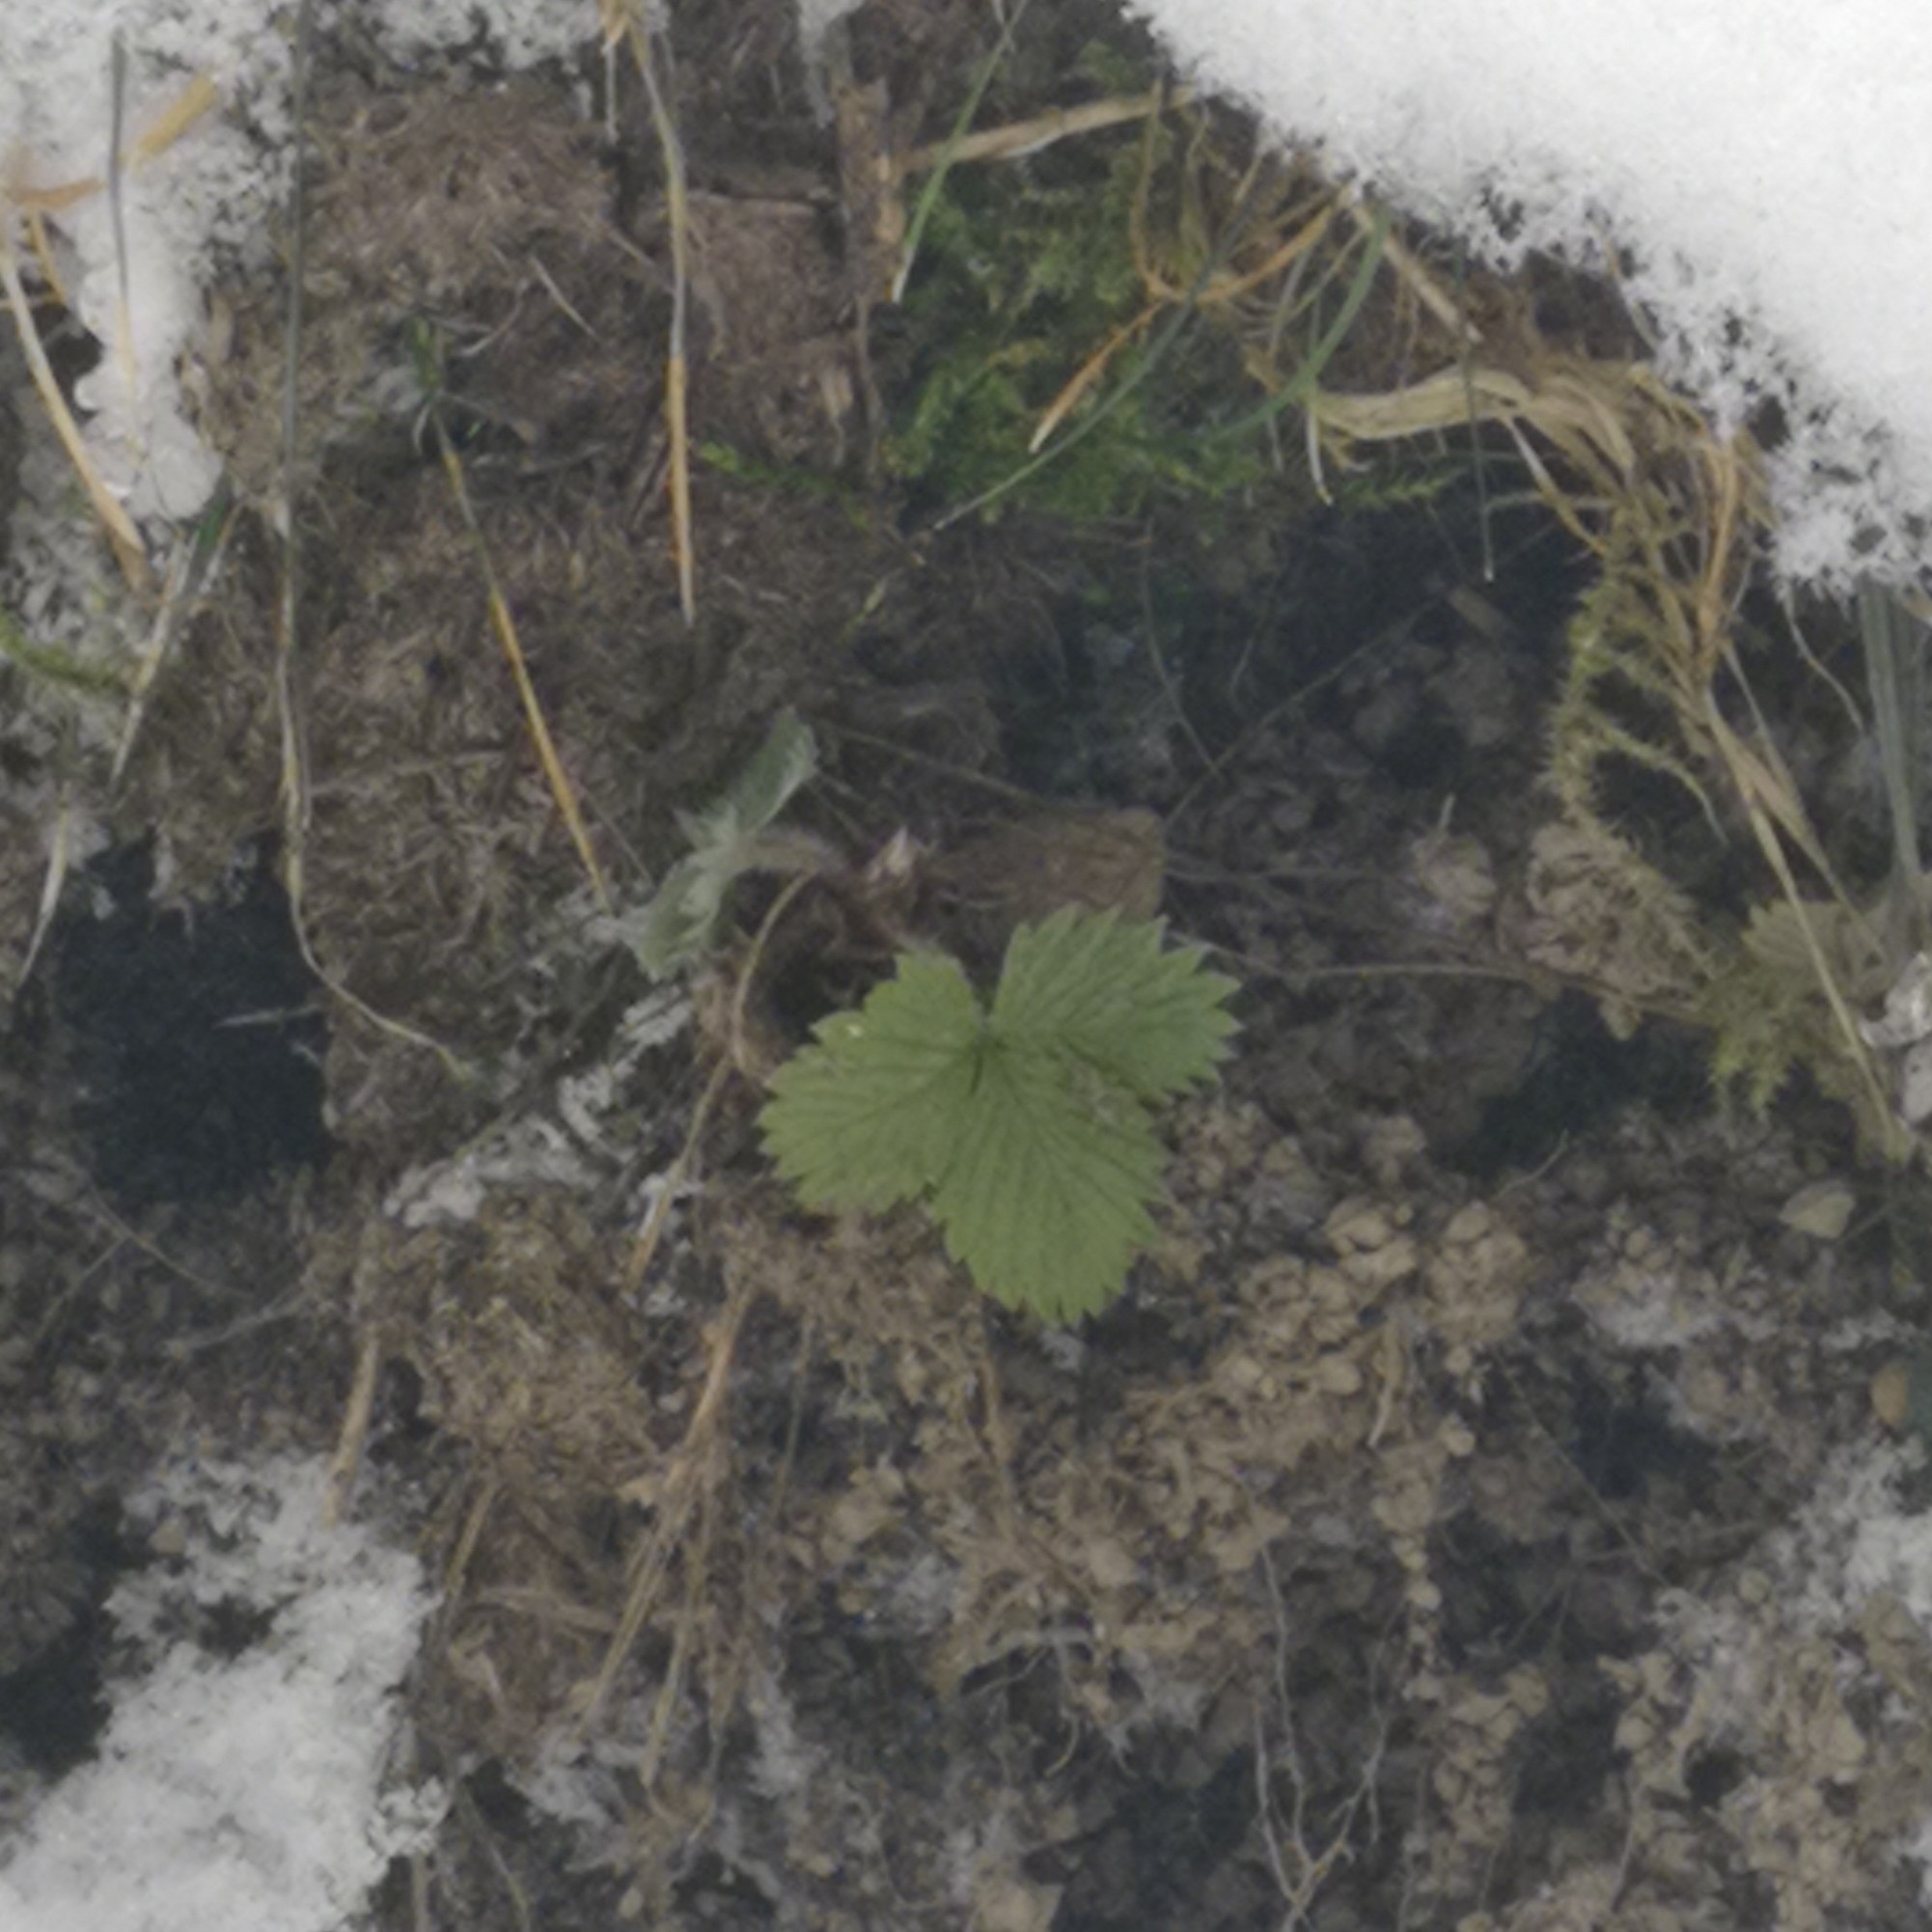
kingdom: Plantae
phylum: Tracheophyta
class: Magnoliopsida
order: Rosales
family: Rosaceae
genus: Fragaria
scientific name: Fragaria vesca
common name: Wild strawberry
